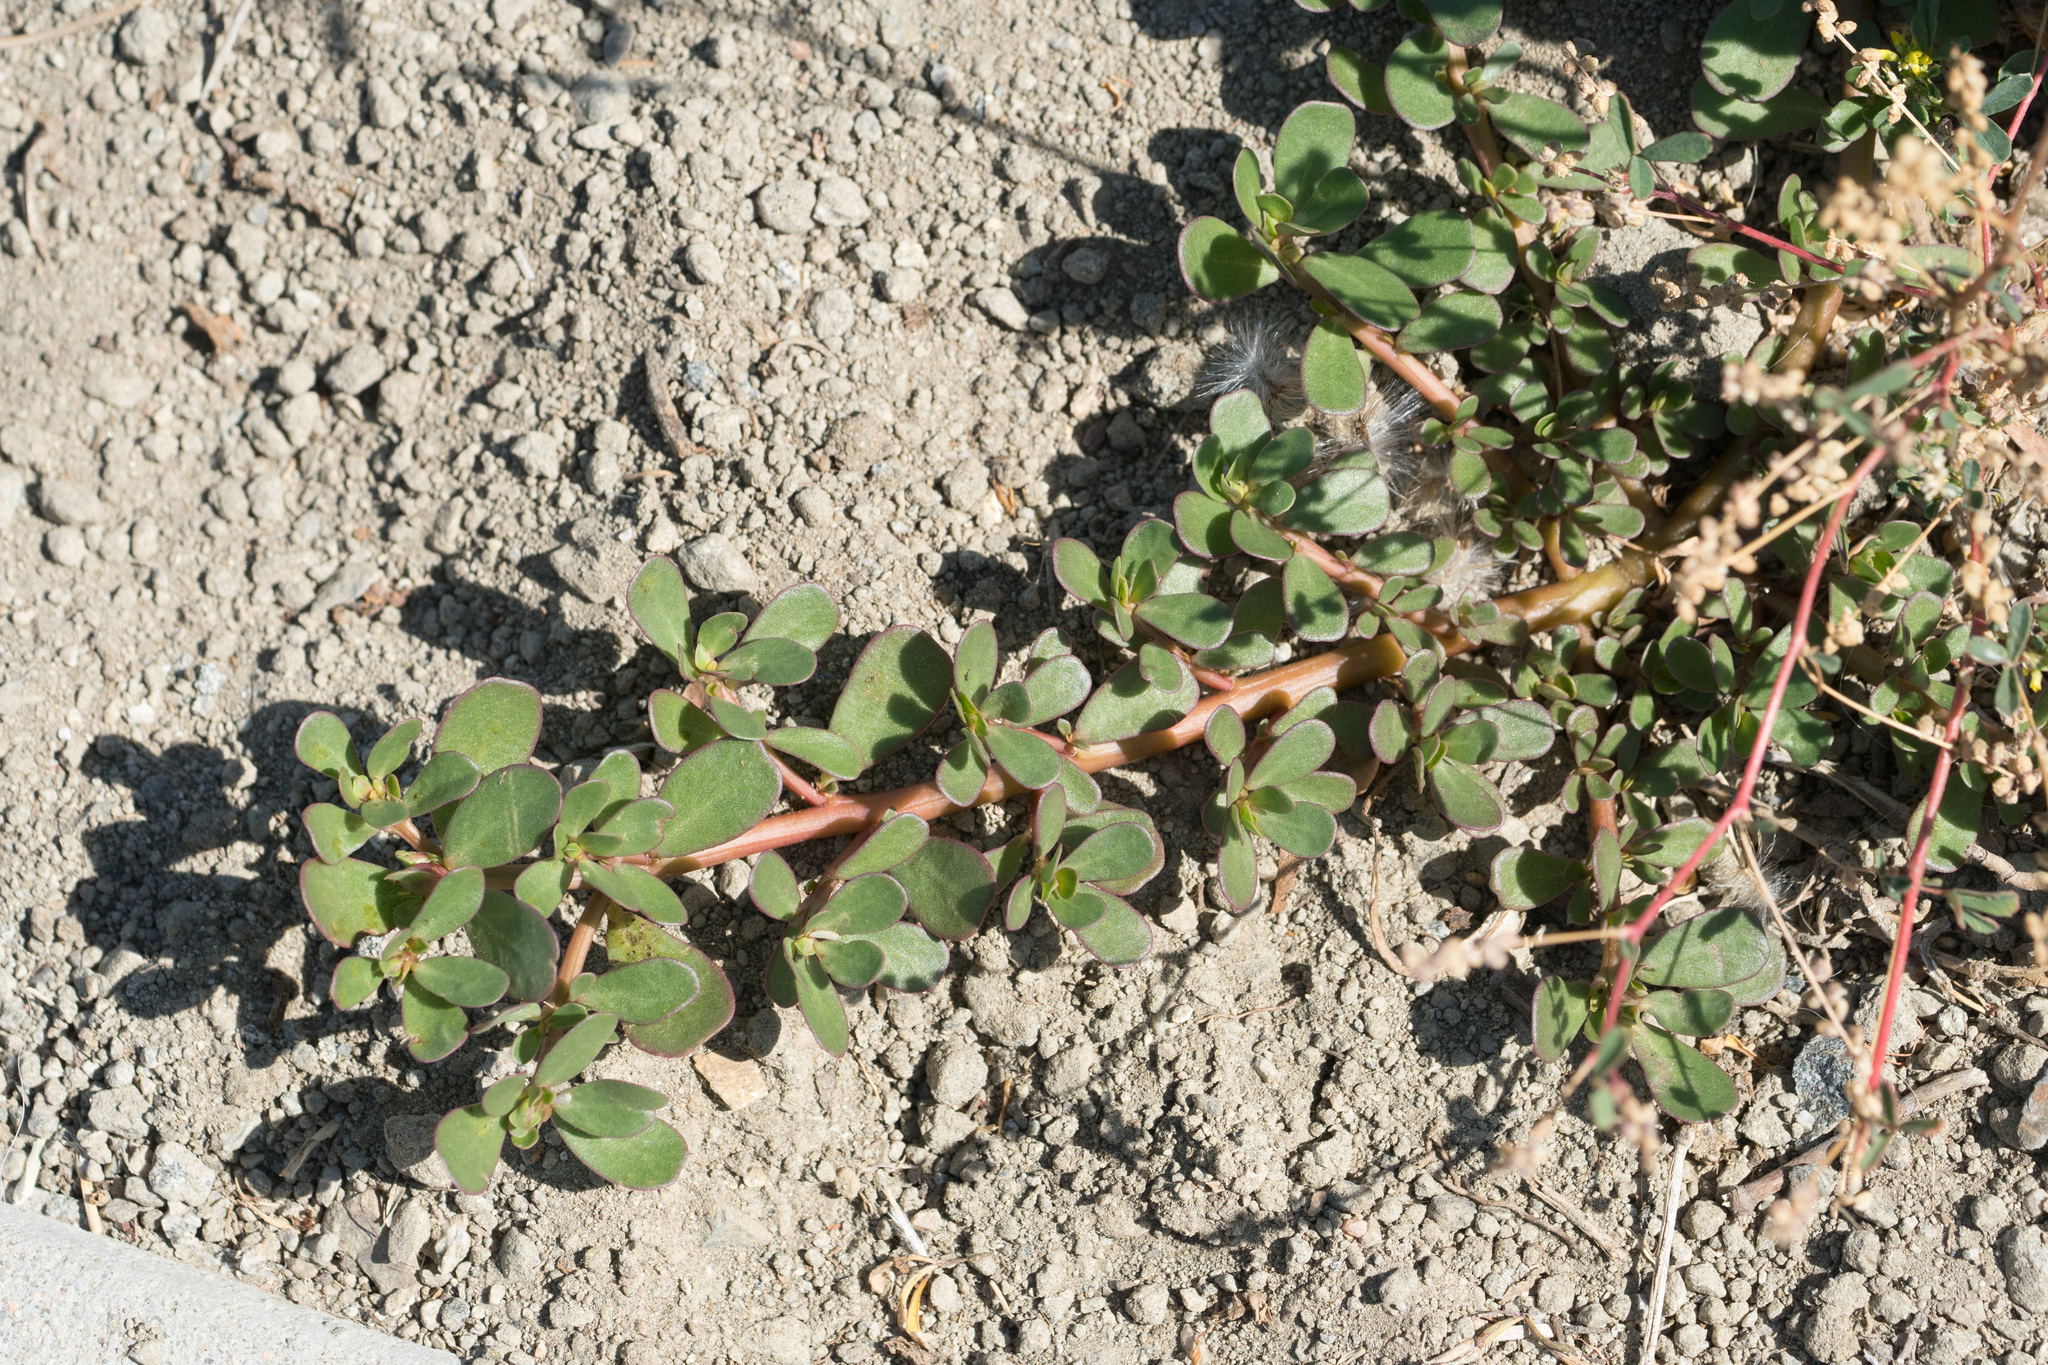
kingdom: Plantae
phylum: Tracheophyta
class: Magnoliopsida
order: Caryophyllales
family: Portulacaceae
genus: Portulaca
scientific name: Portulaca oleracea
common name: Common purslane
